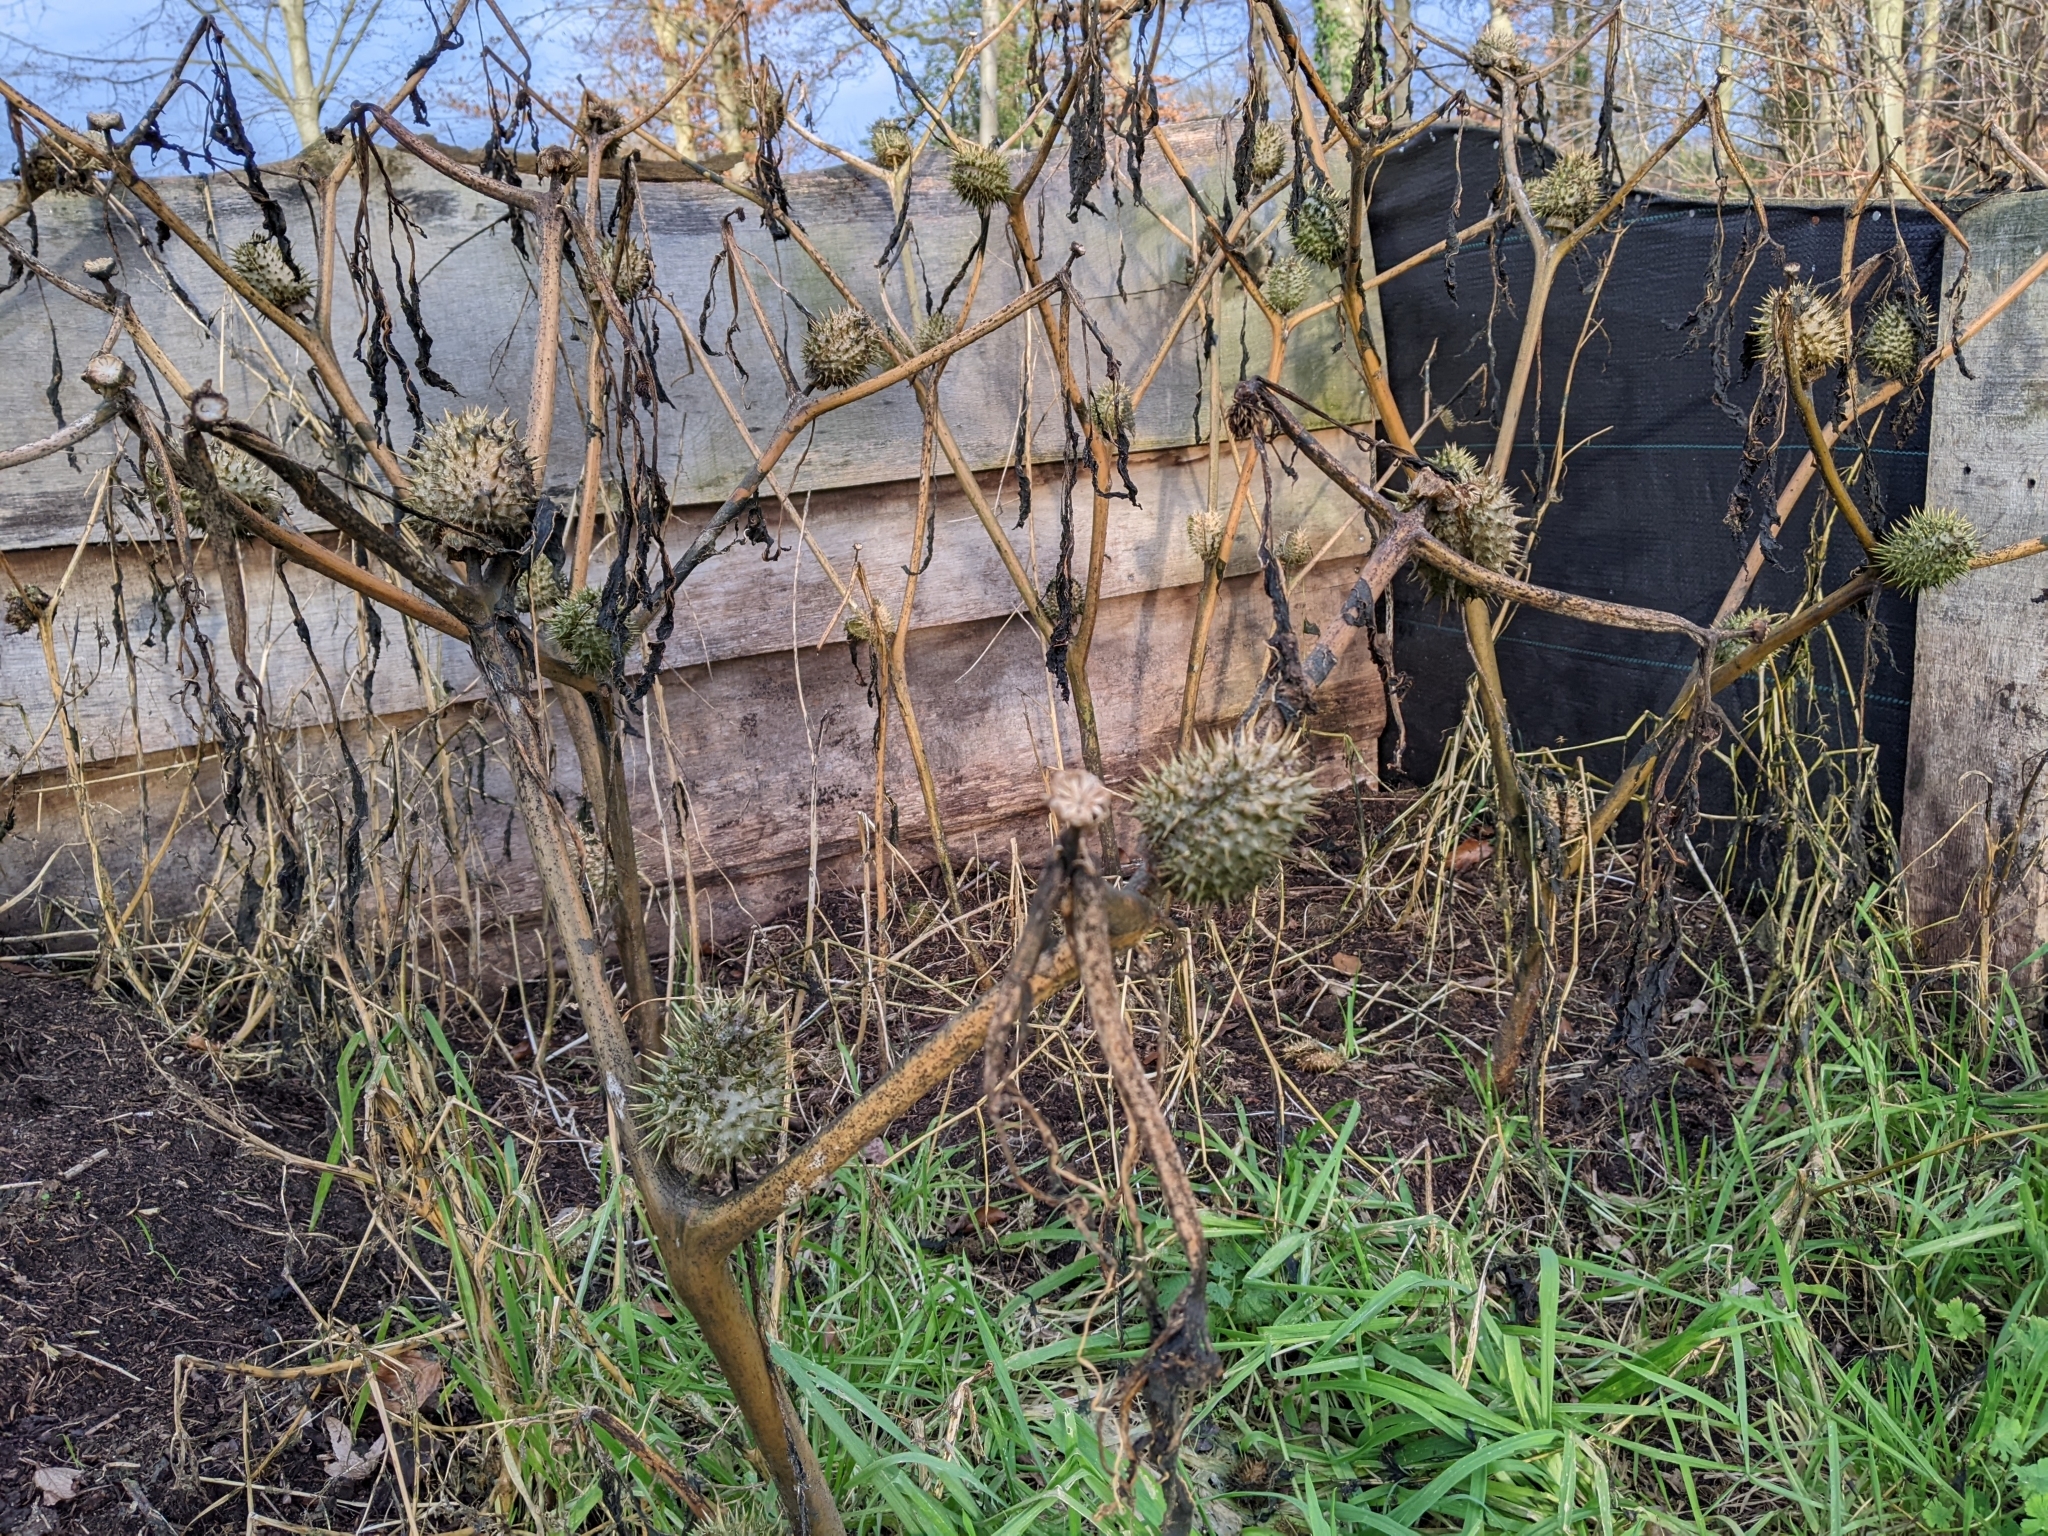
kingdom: Plantae
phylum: Tracheophyta
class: Magnoliopsida
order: Solanales
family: Solanaceae
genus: Datura
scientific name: Datura stramonium
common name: Thorn-apple
